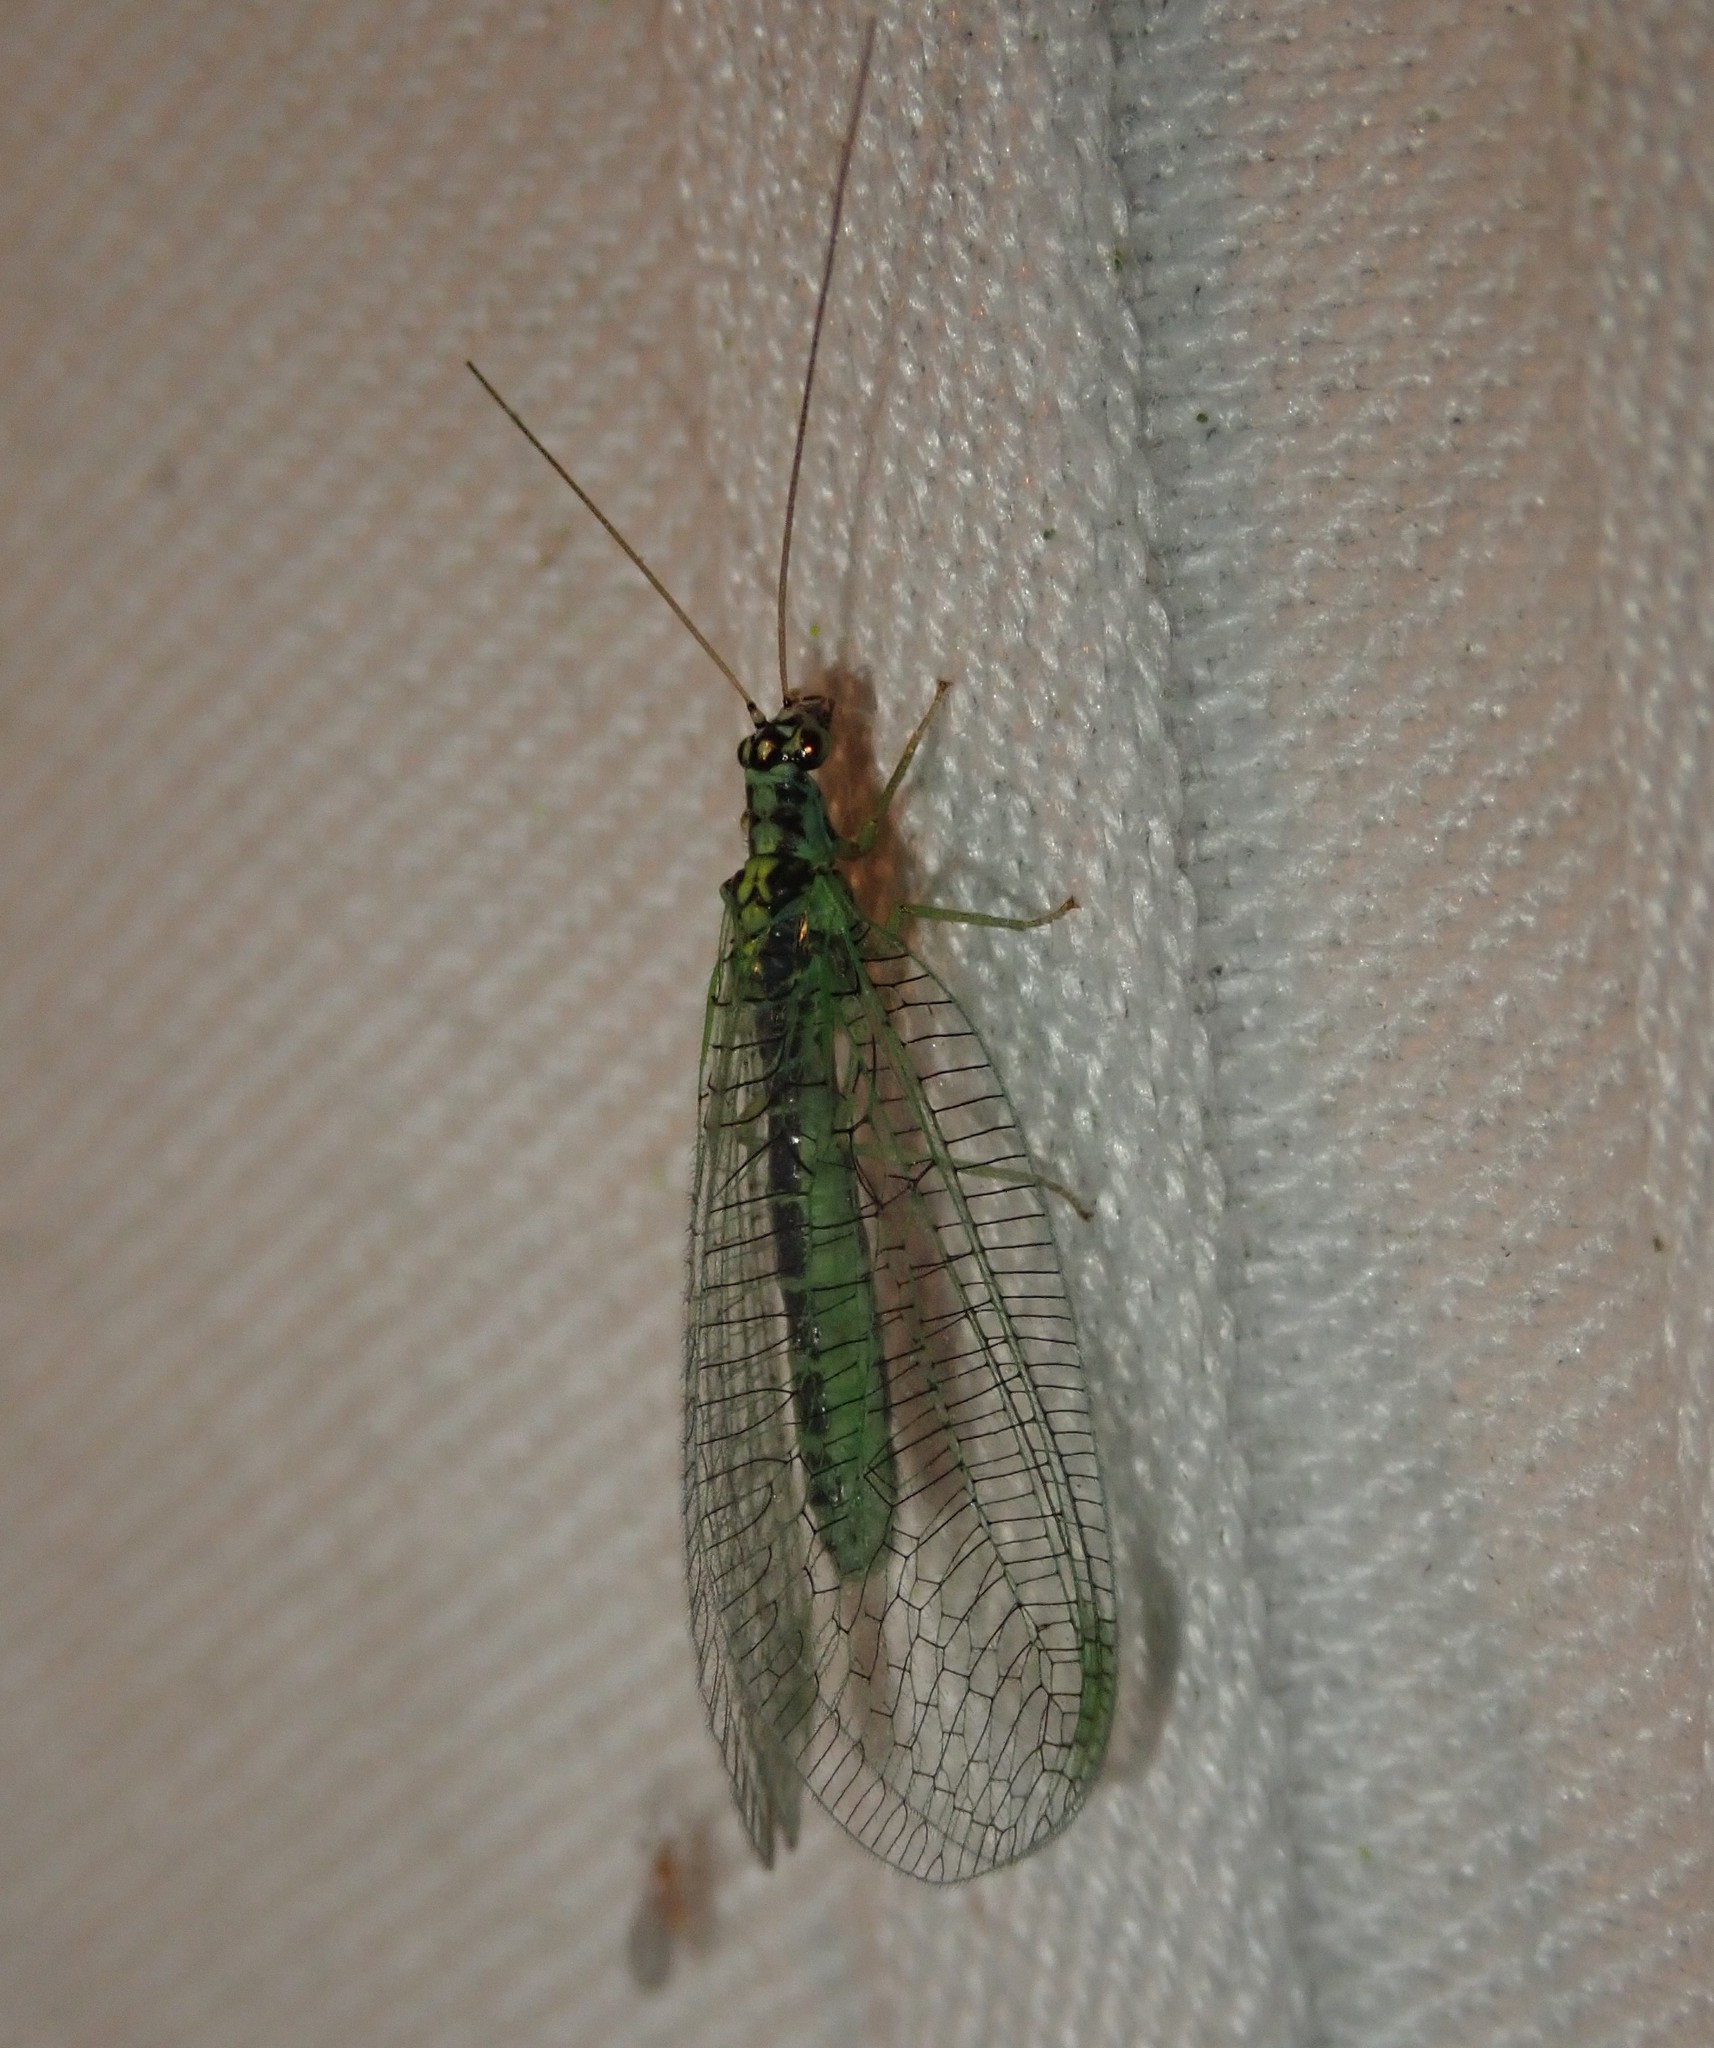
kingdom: Animalia
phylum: Arthropoda
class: Insecta
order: Neuroptera
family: Chrysopidae
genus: Chrysopa
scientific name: Chrysopa perla
